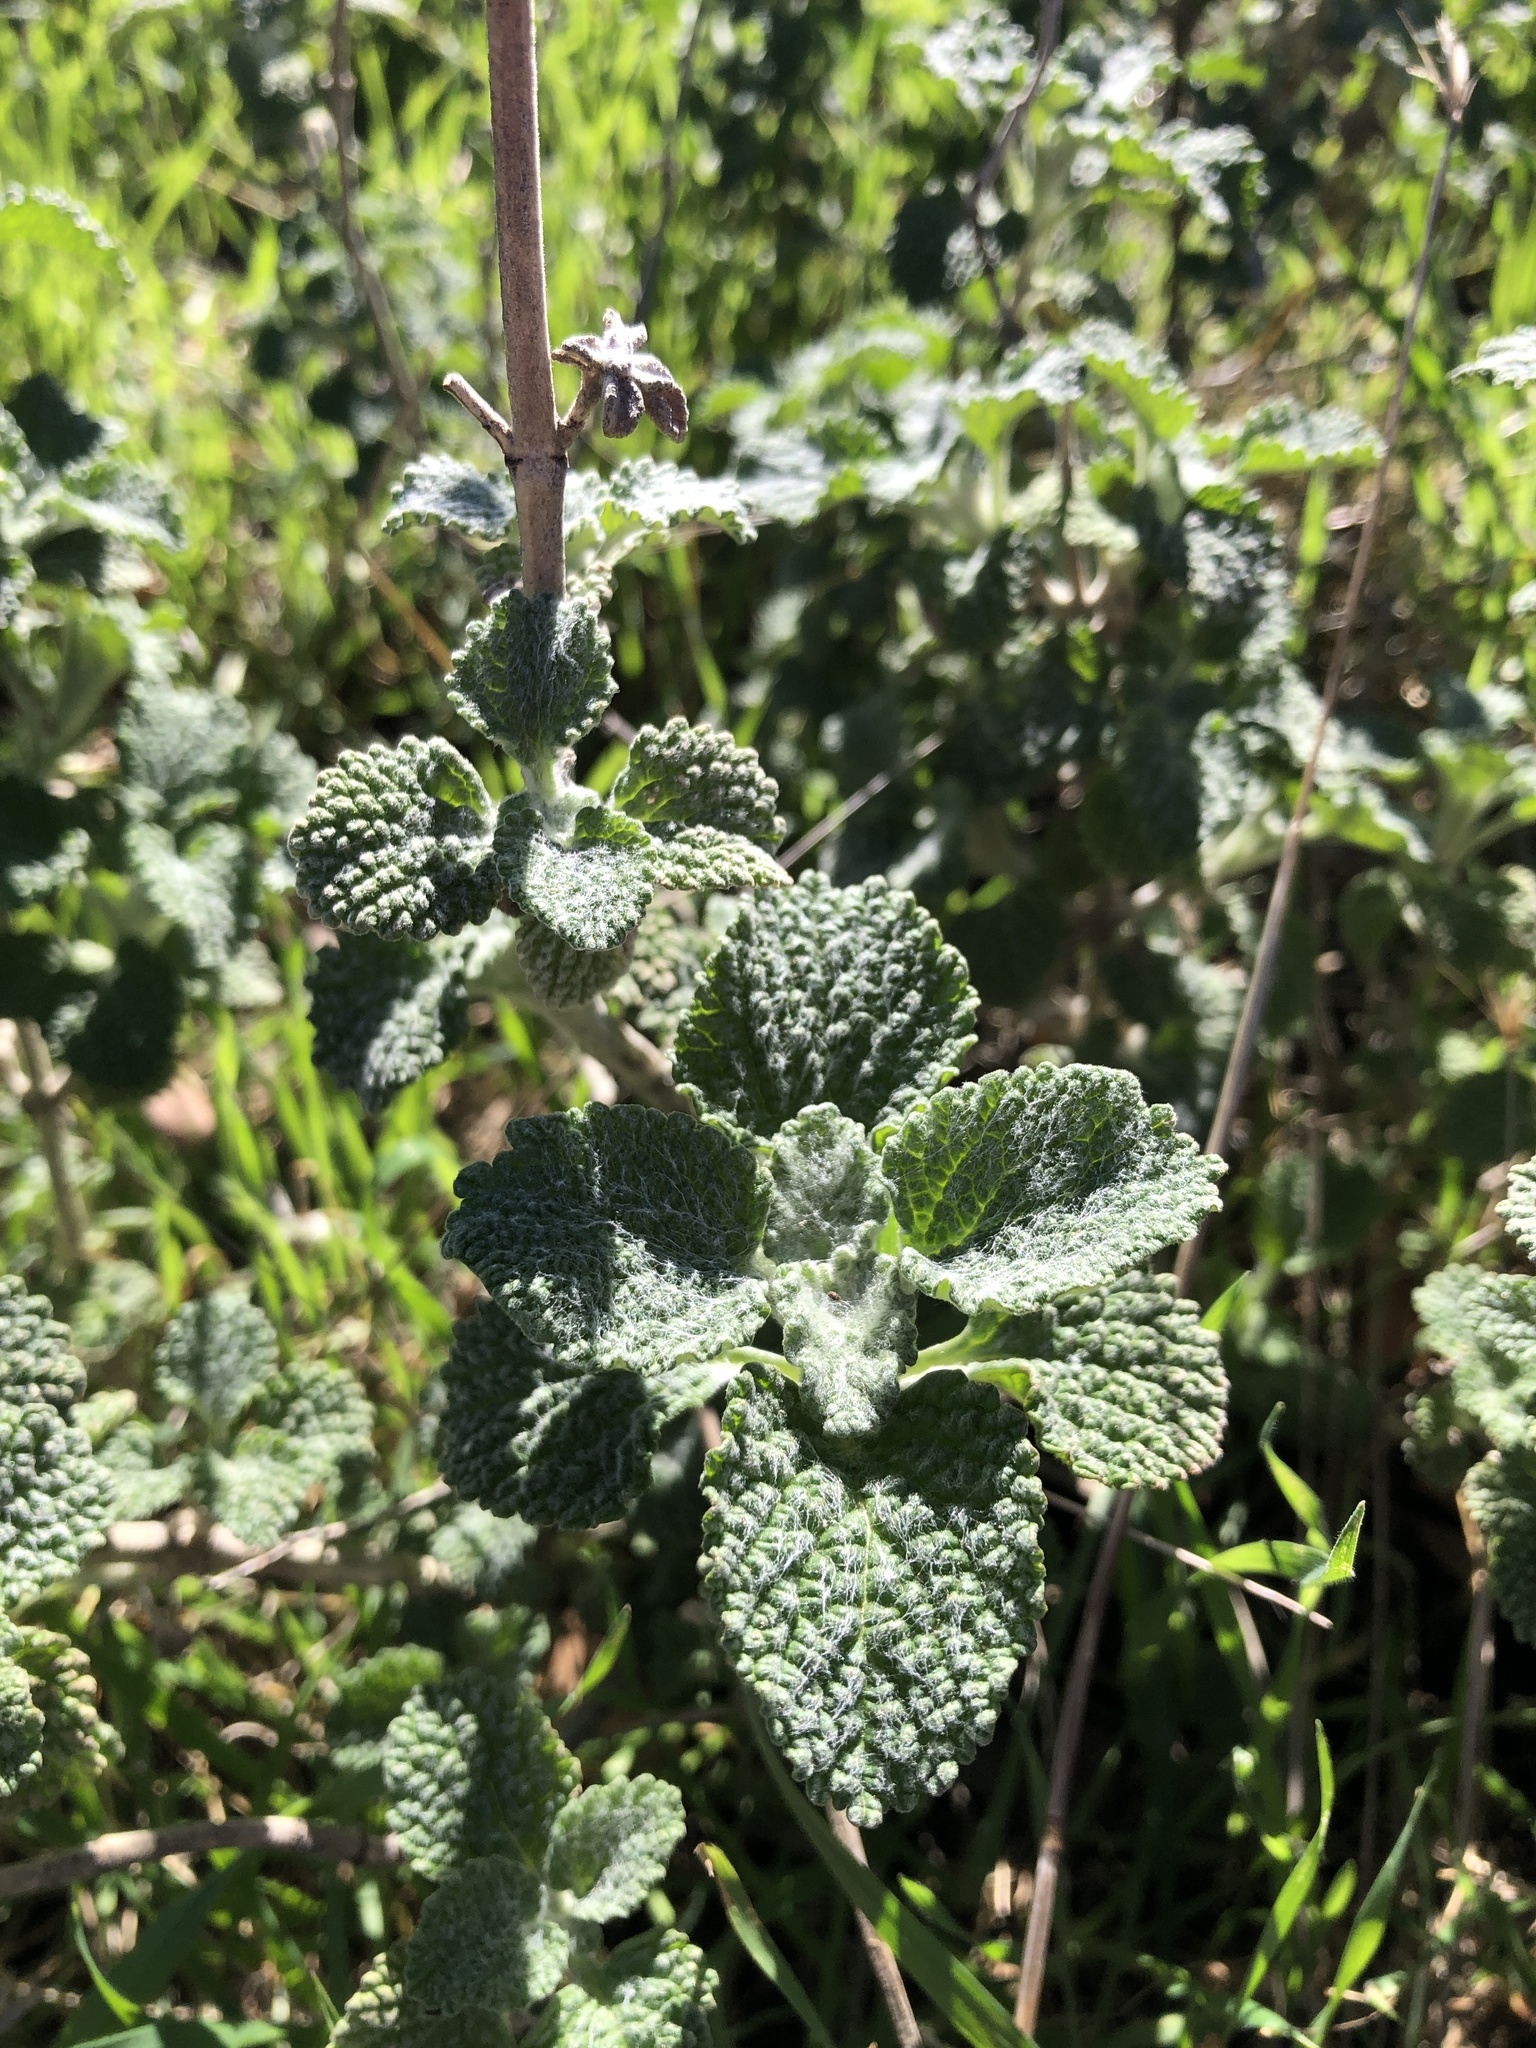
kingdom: Plantae
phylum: Tracheophyta
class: Magnoliopsida
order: Lamiales
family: Lamiaceae
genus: Marrubium
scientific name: Marrubium vulgare
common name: Horehound
